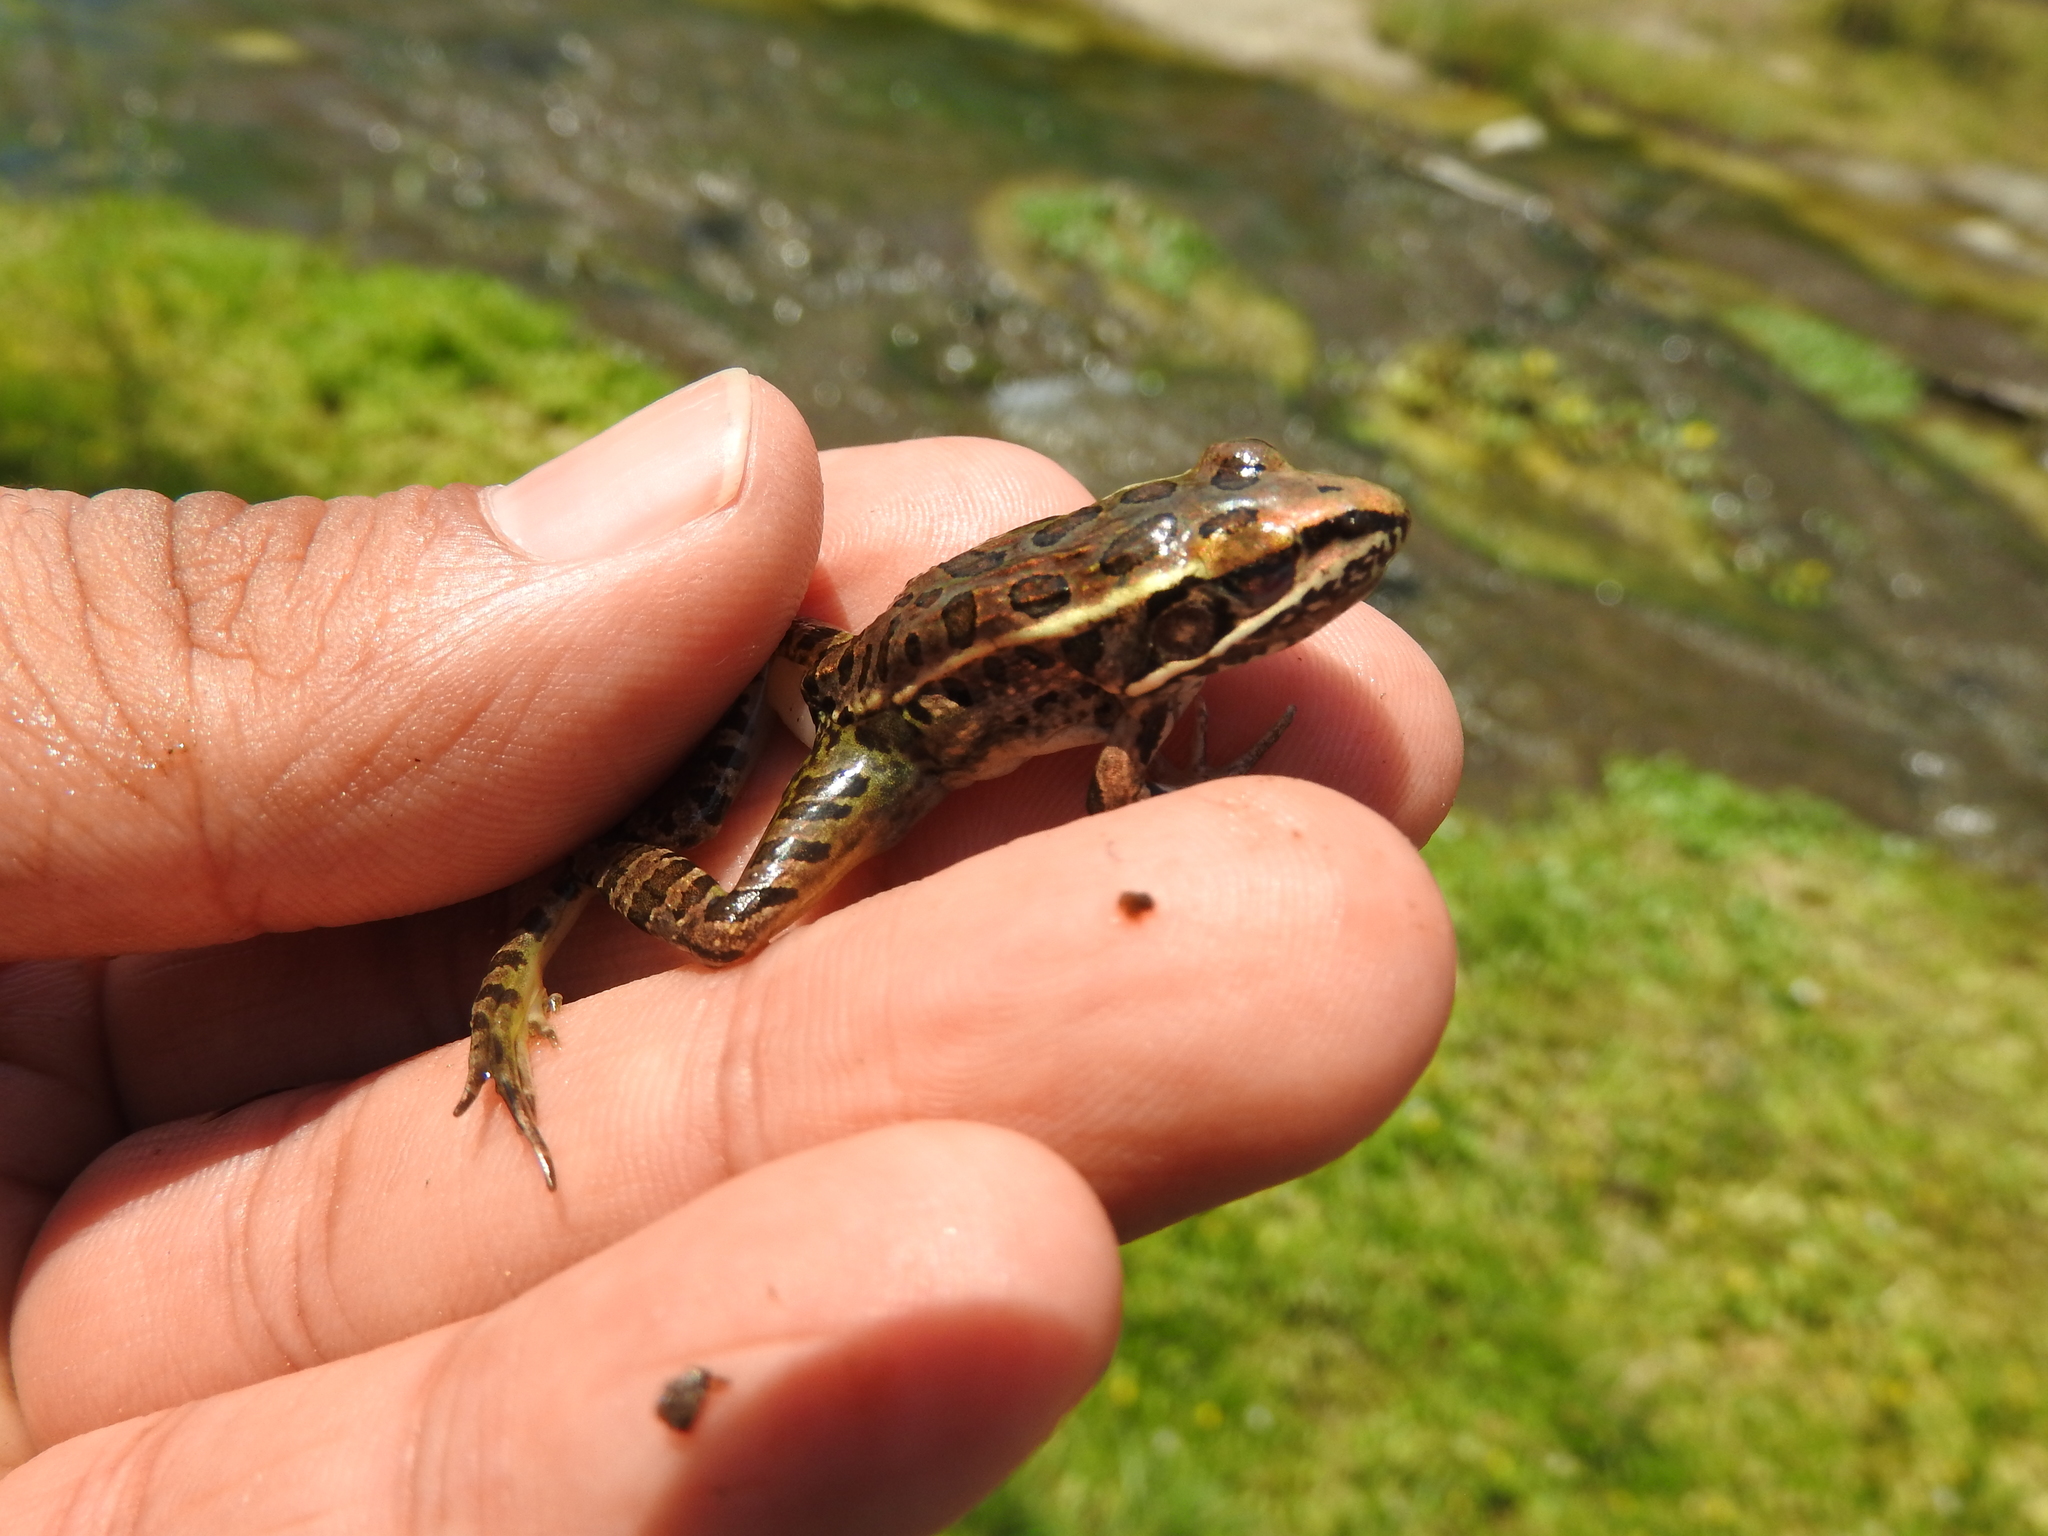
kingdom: Animalia
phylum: Chordata
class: Amphibia
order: Anura
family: Ranidae
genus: Lithobates
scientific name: Lithobates neovolcanicus
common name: Transverse volcanic leopard frog
